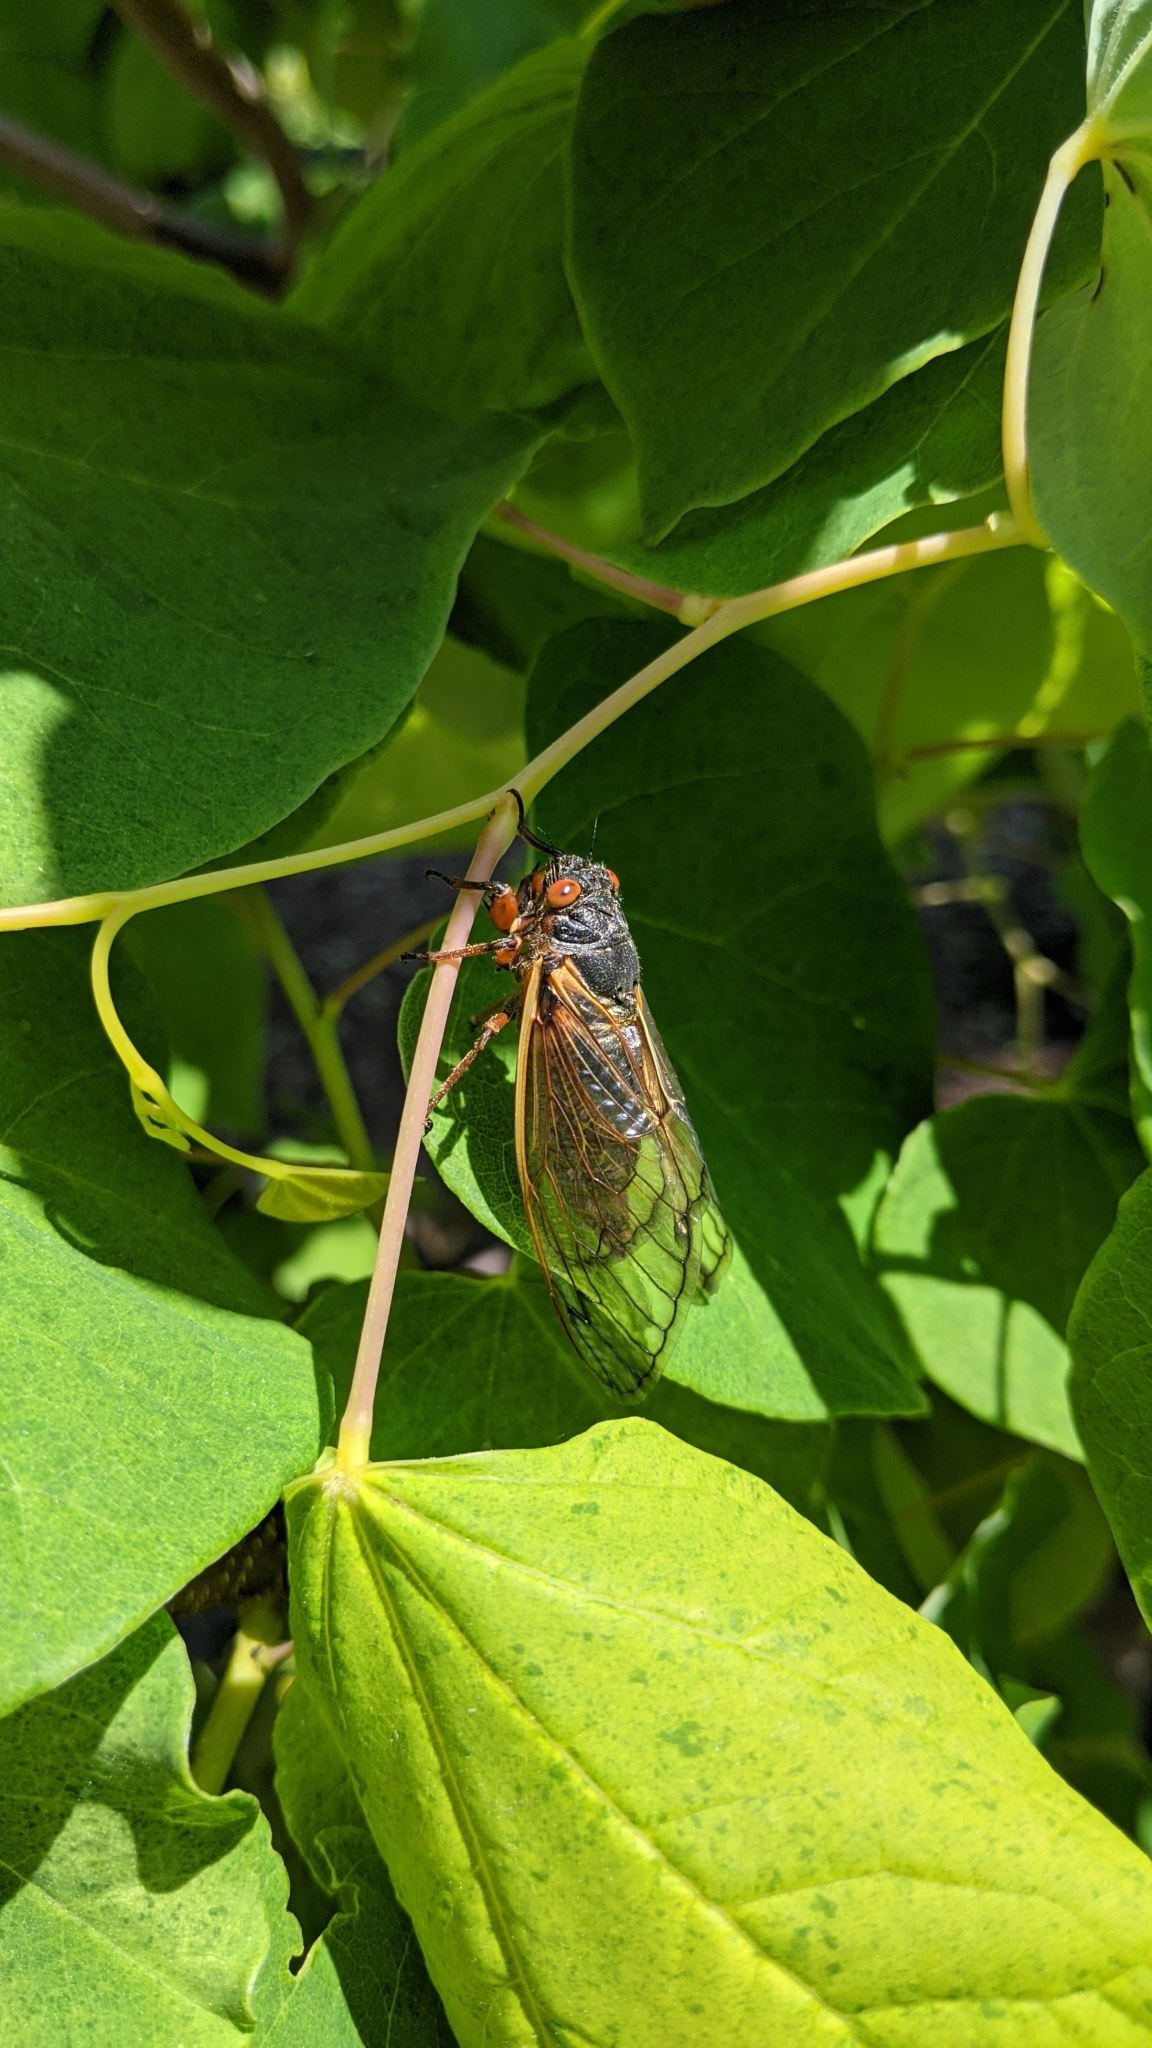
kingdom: Animalia
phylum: Arthropoda
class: Insecta
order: Hemiptera
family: Cicadidae
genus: Magicicada
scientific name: Magicicada septendecim
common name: Periodical cicada
